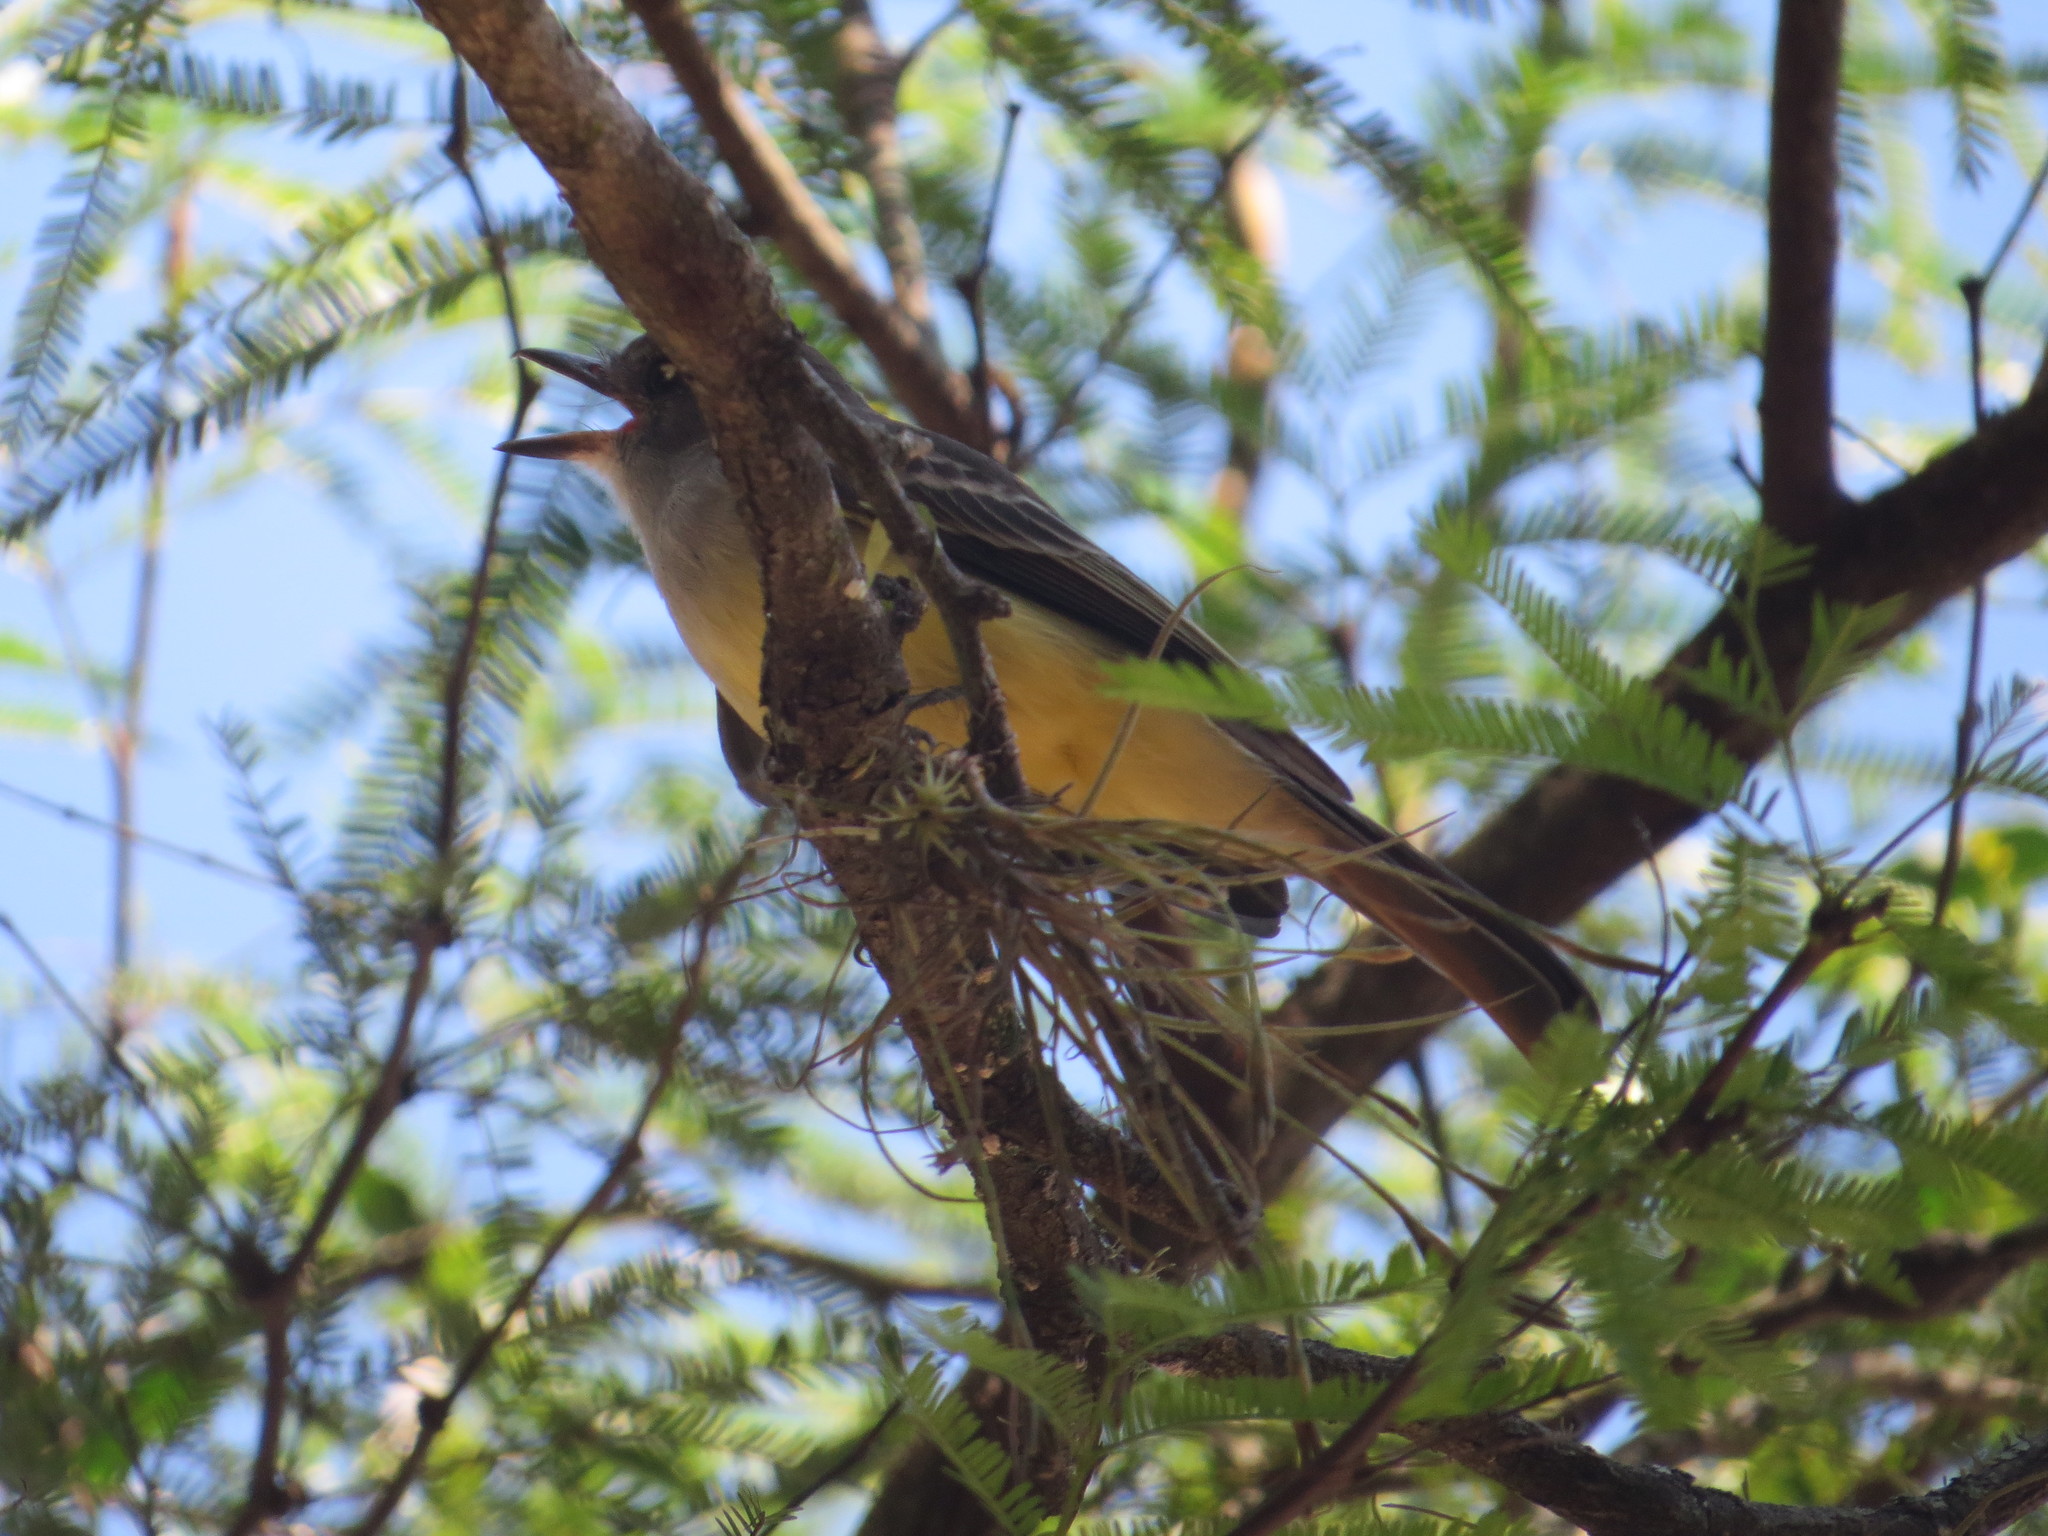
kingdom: Animalia
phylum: Chordata
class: Aves
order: Passeriformes
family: Tyrannidae
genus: Myiarchus
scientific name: Myiarchus tyrannulus
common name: Brown-crested flycatcher
